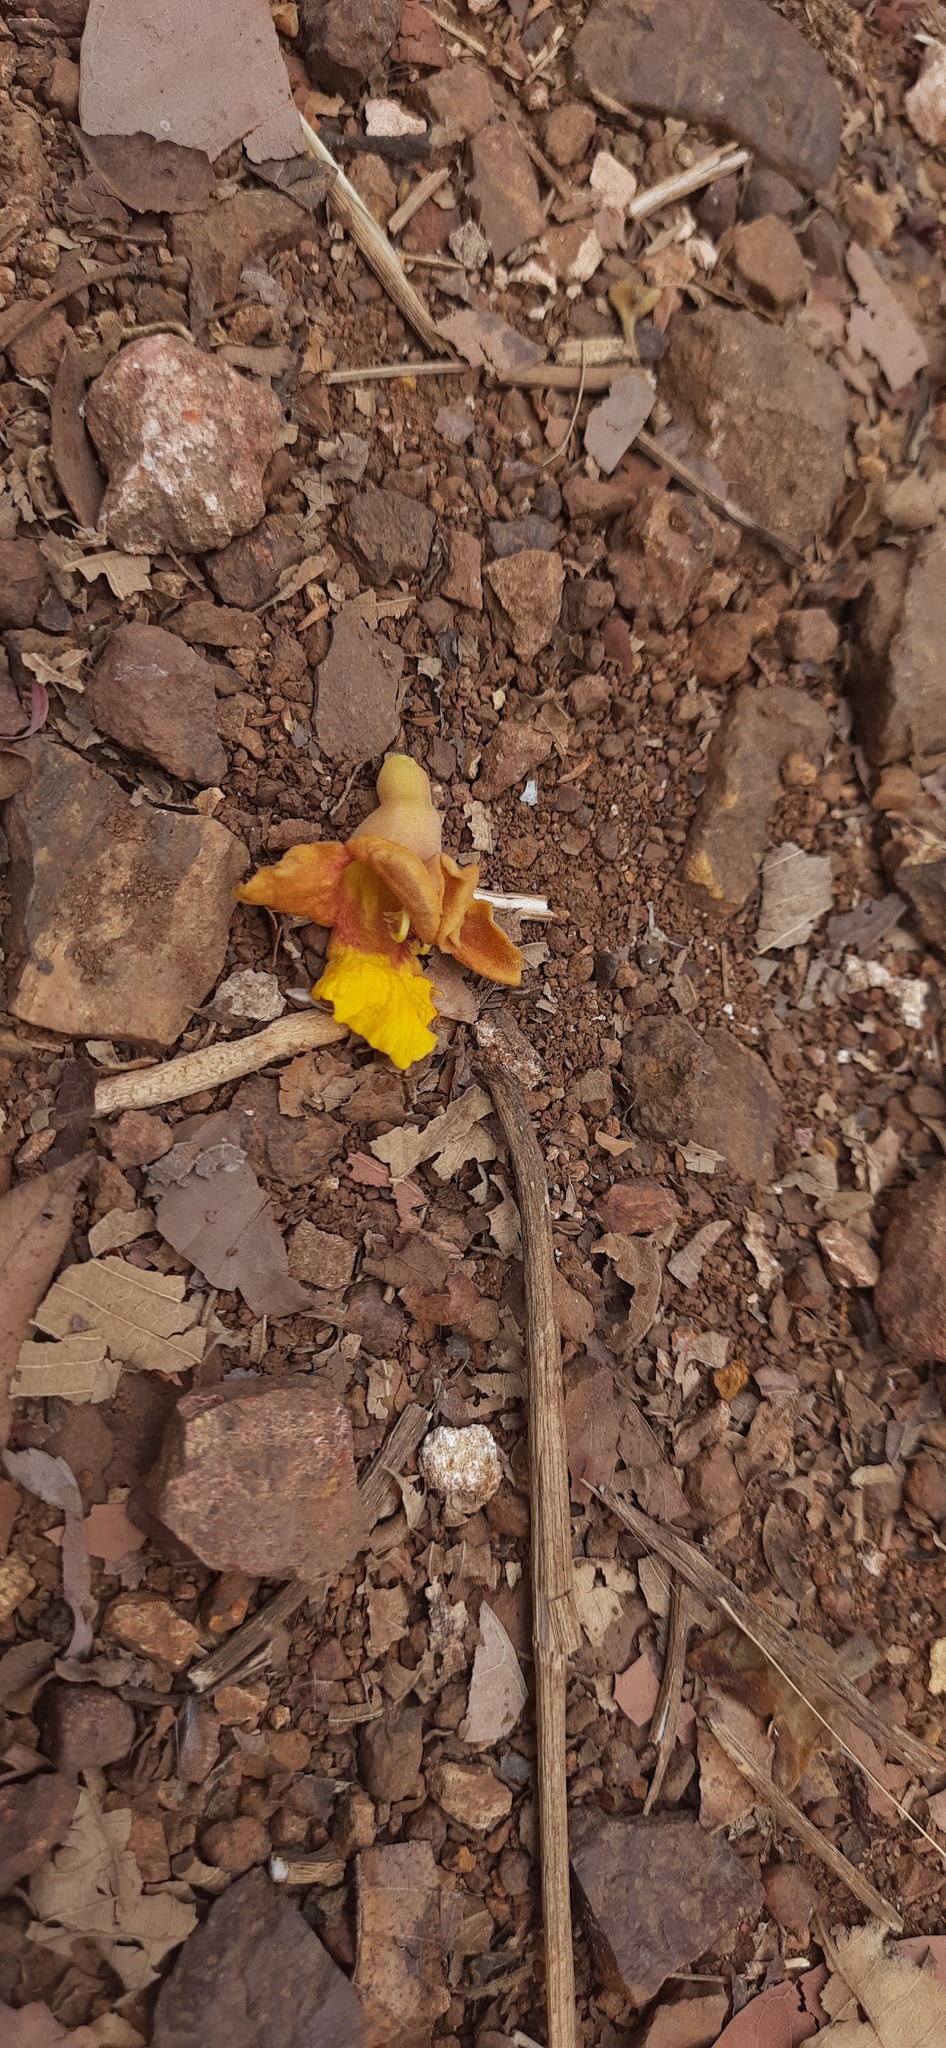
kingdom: Plantae
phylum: Tracheophyta
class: Magnoliopsida
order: Lamiales
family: Lamiaceae
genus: Gmelina
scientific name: Gmelina arborea
